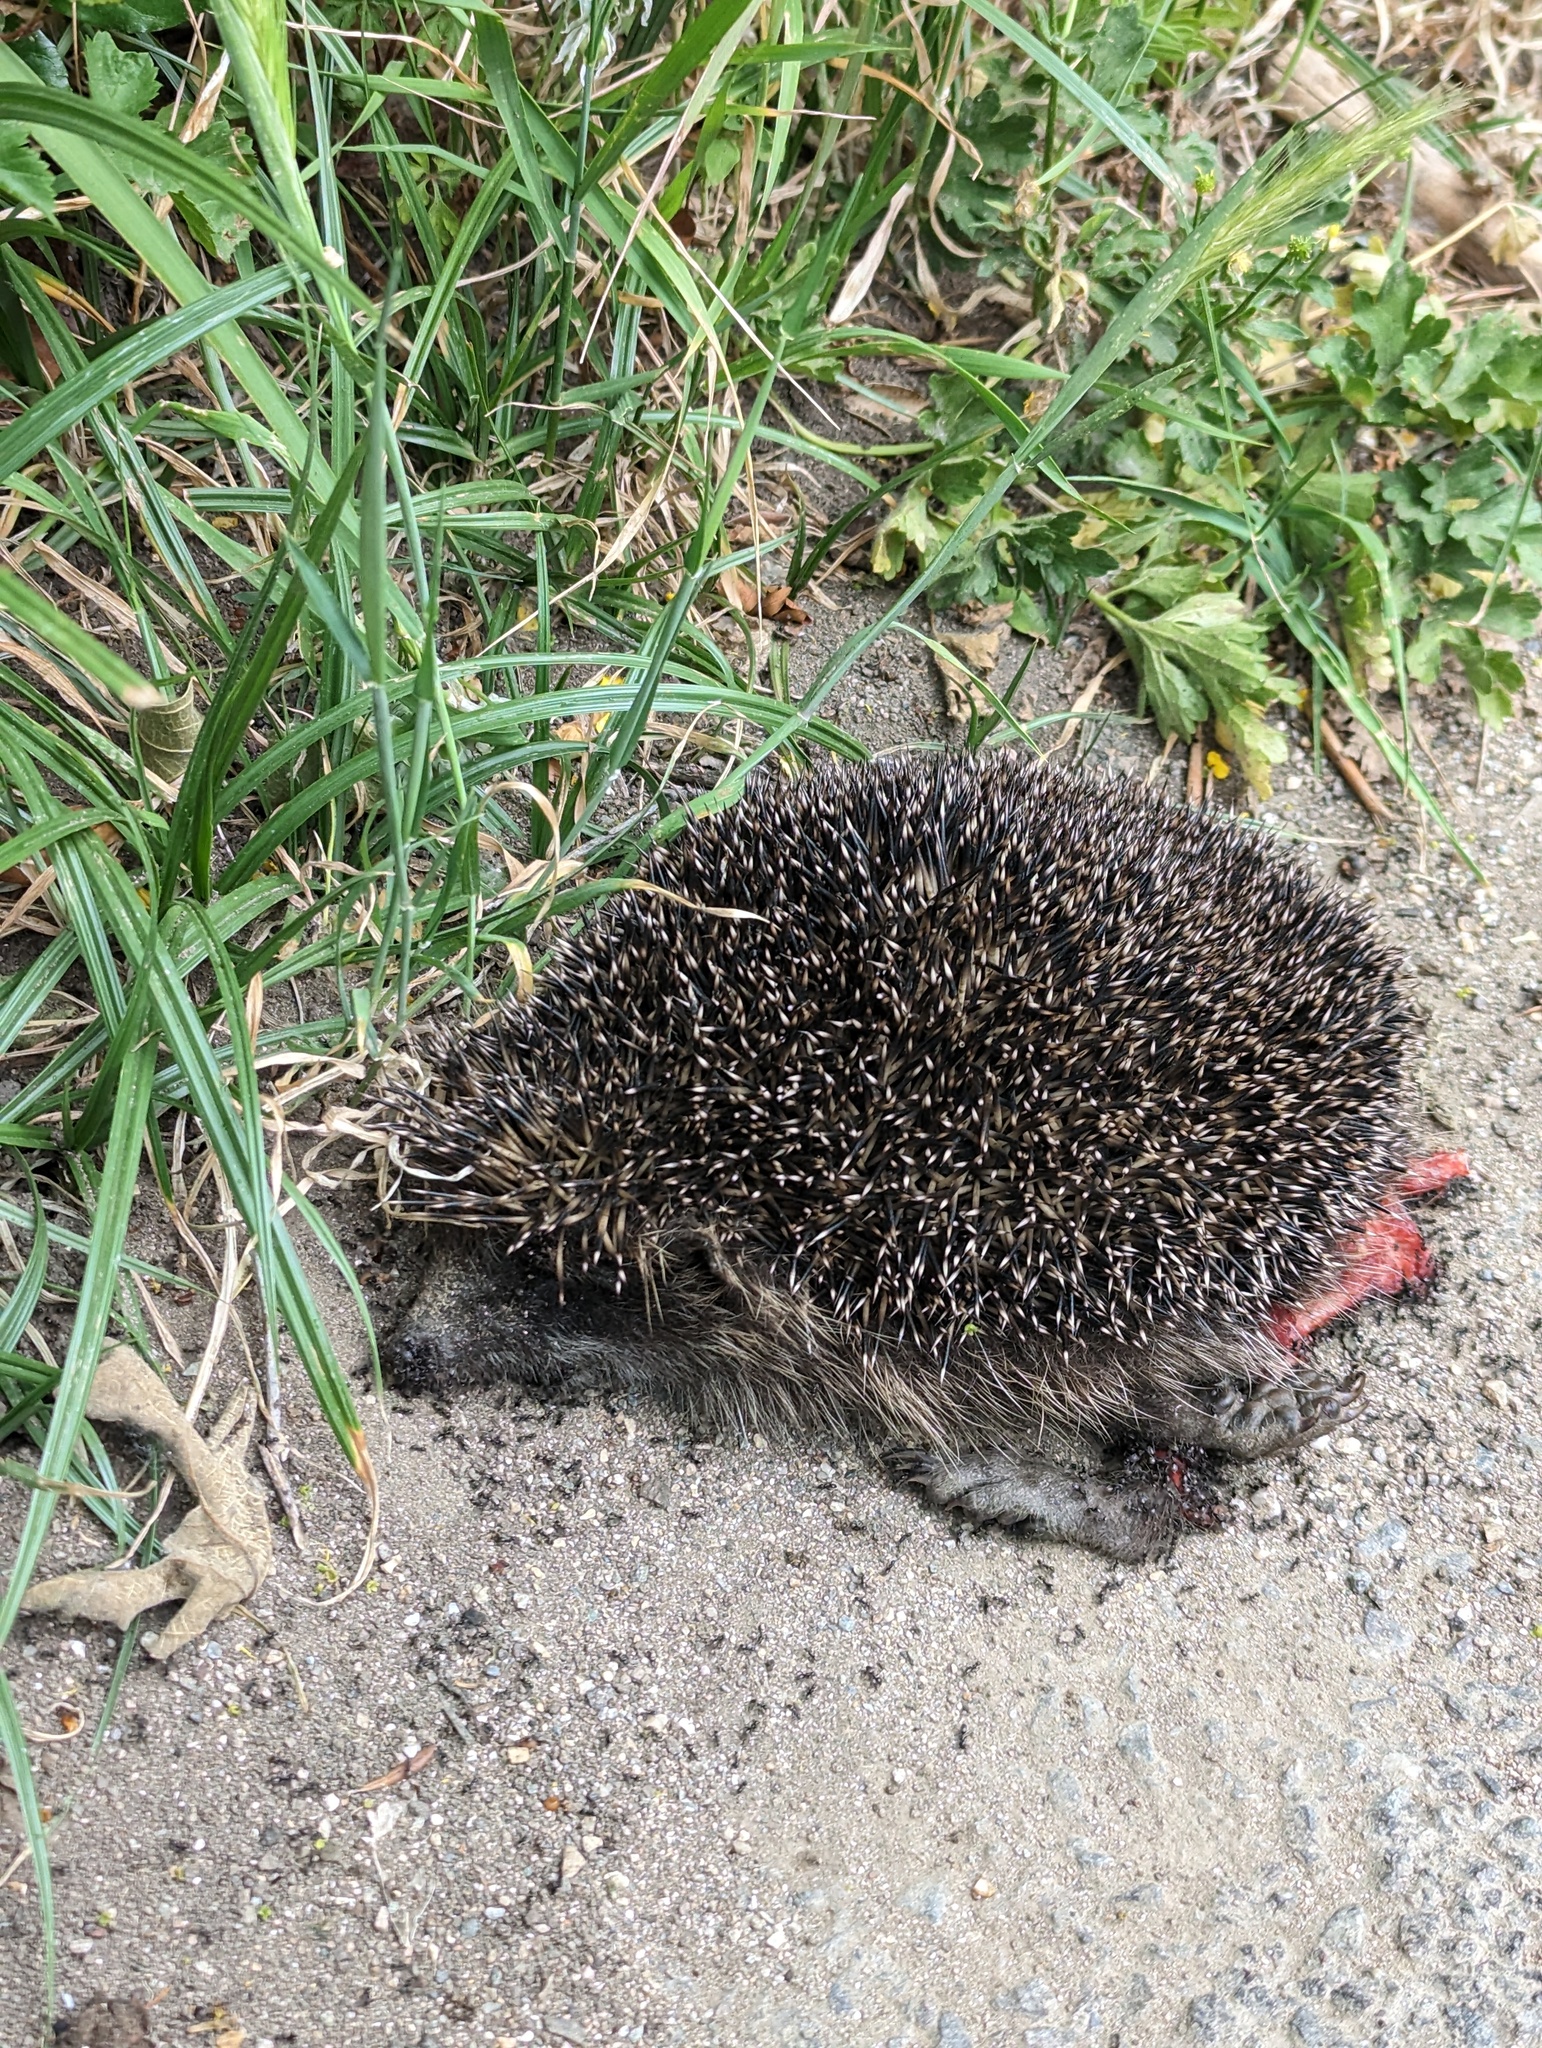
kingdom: Animalia
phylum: Chordata
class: Mammalia
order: Erinaceomorpha
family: Erinaceidae
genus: Erinaceus
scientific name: Erinaceus europaeus
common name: West european hedgehog
